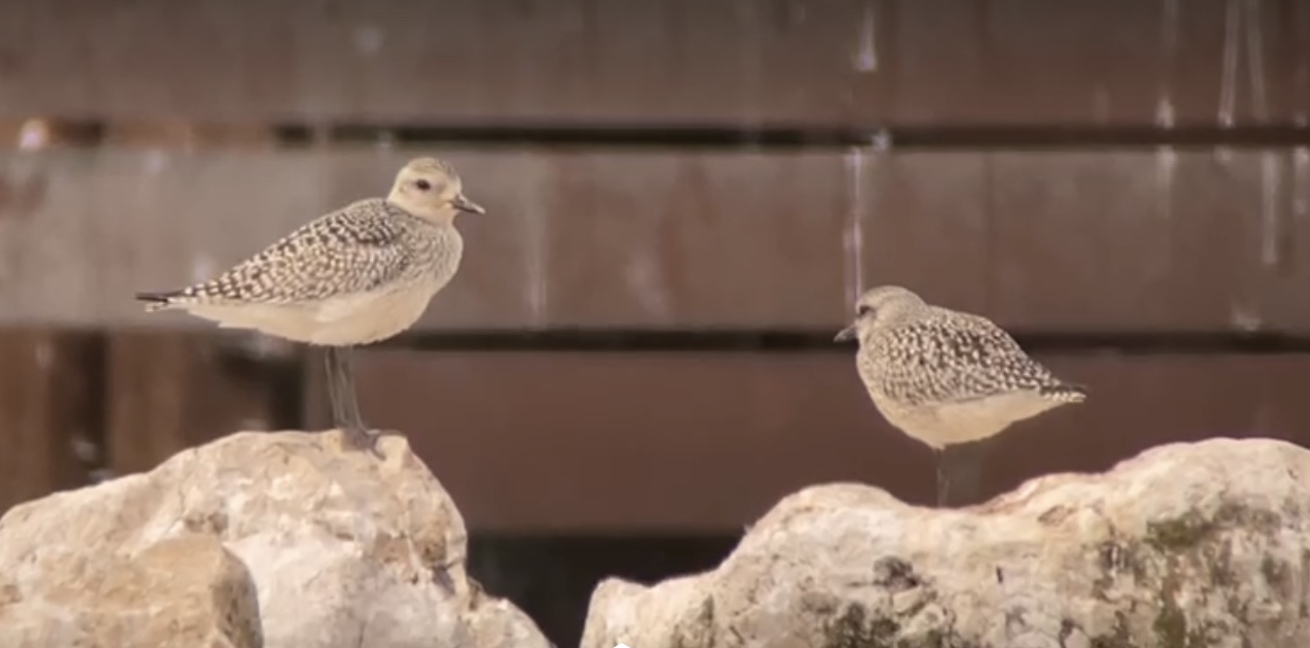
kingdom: Animalia
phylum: Chordata
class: Aves
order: Charadriiformes
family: Charadriidae
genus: Pluvialis
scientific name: Pluvialis squatarola
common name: Grey plover
